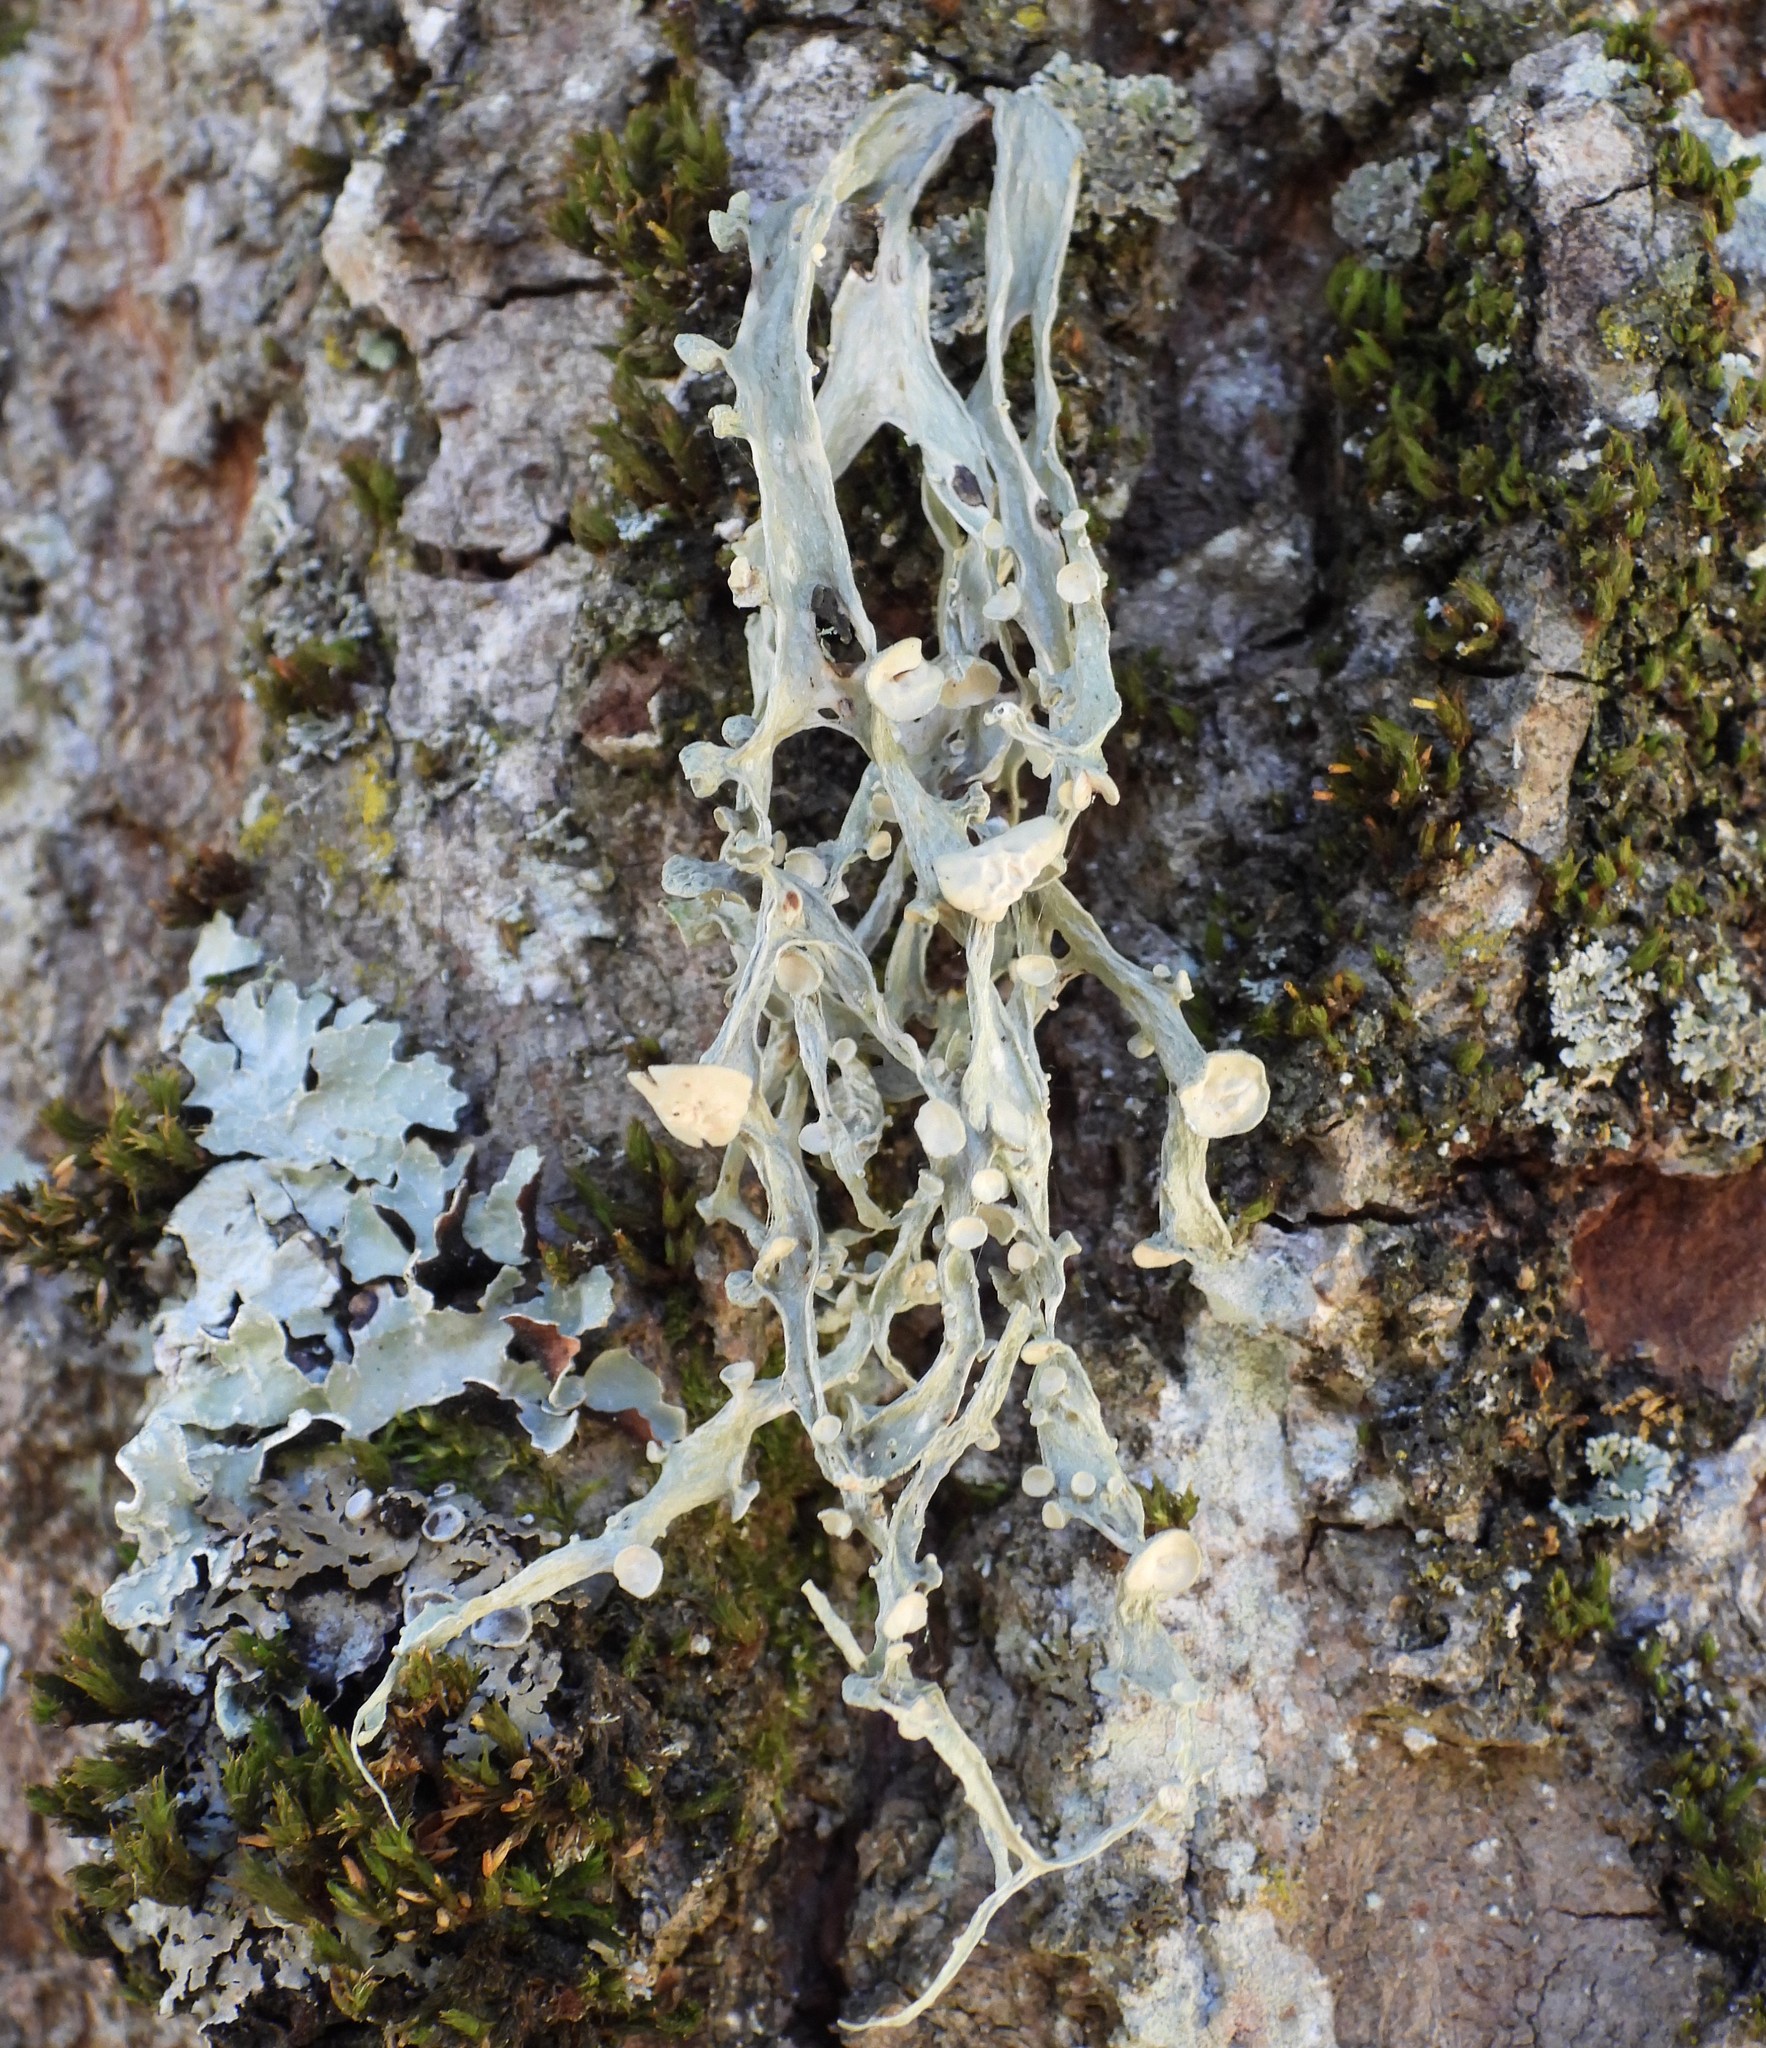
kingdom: Fungi
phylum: Ascomycota
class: Lecanoromycetes
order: Lecanorales
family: Ramalinaceae
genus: Ramalina
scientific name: Ramalina fraxinea
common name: Cartilage lichen
